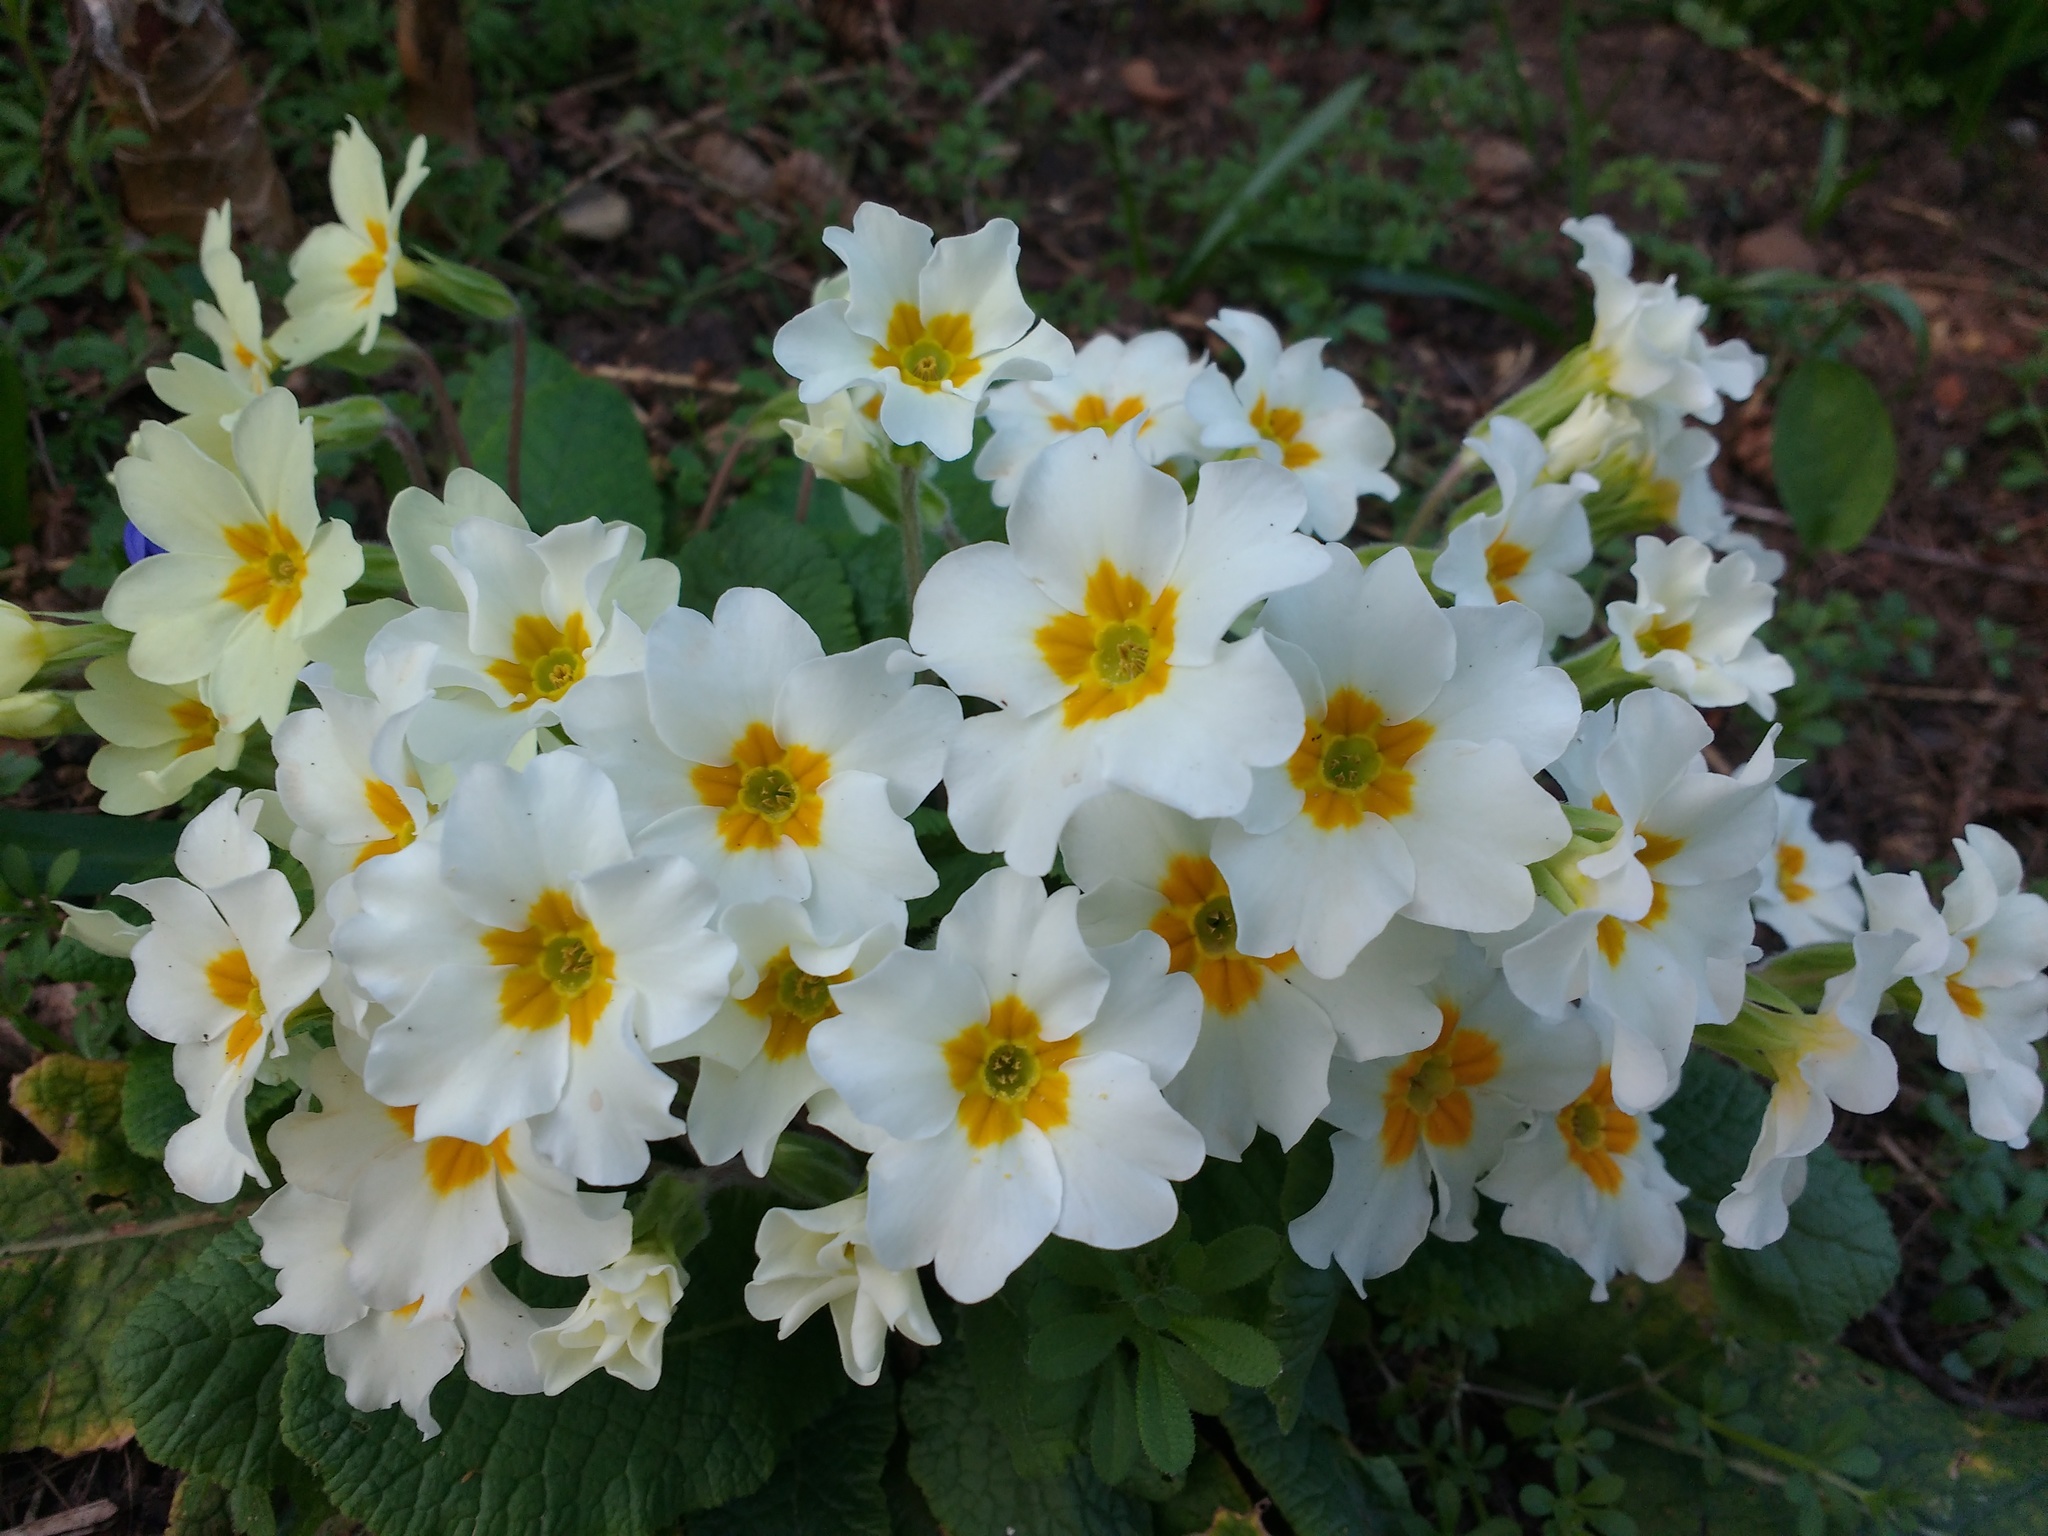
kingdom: Plantae
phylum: Tracheophyta
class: Magnoliopsida
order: Ericales
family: Primulaceae
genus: Primula
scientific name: Primula vulgaris
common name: Primrose
